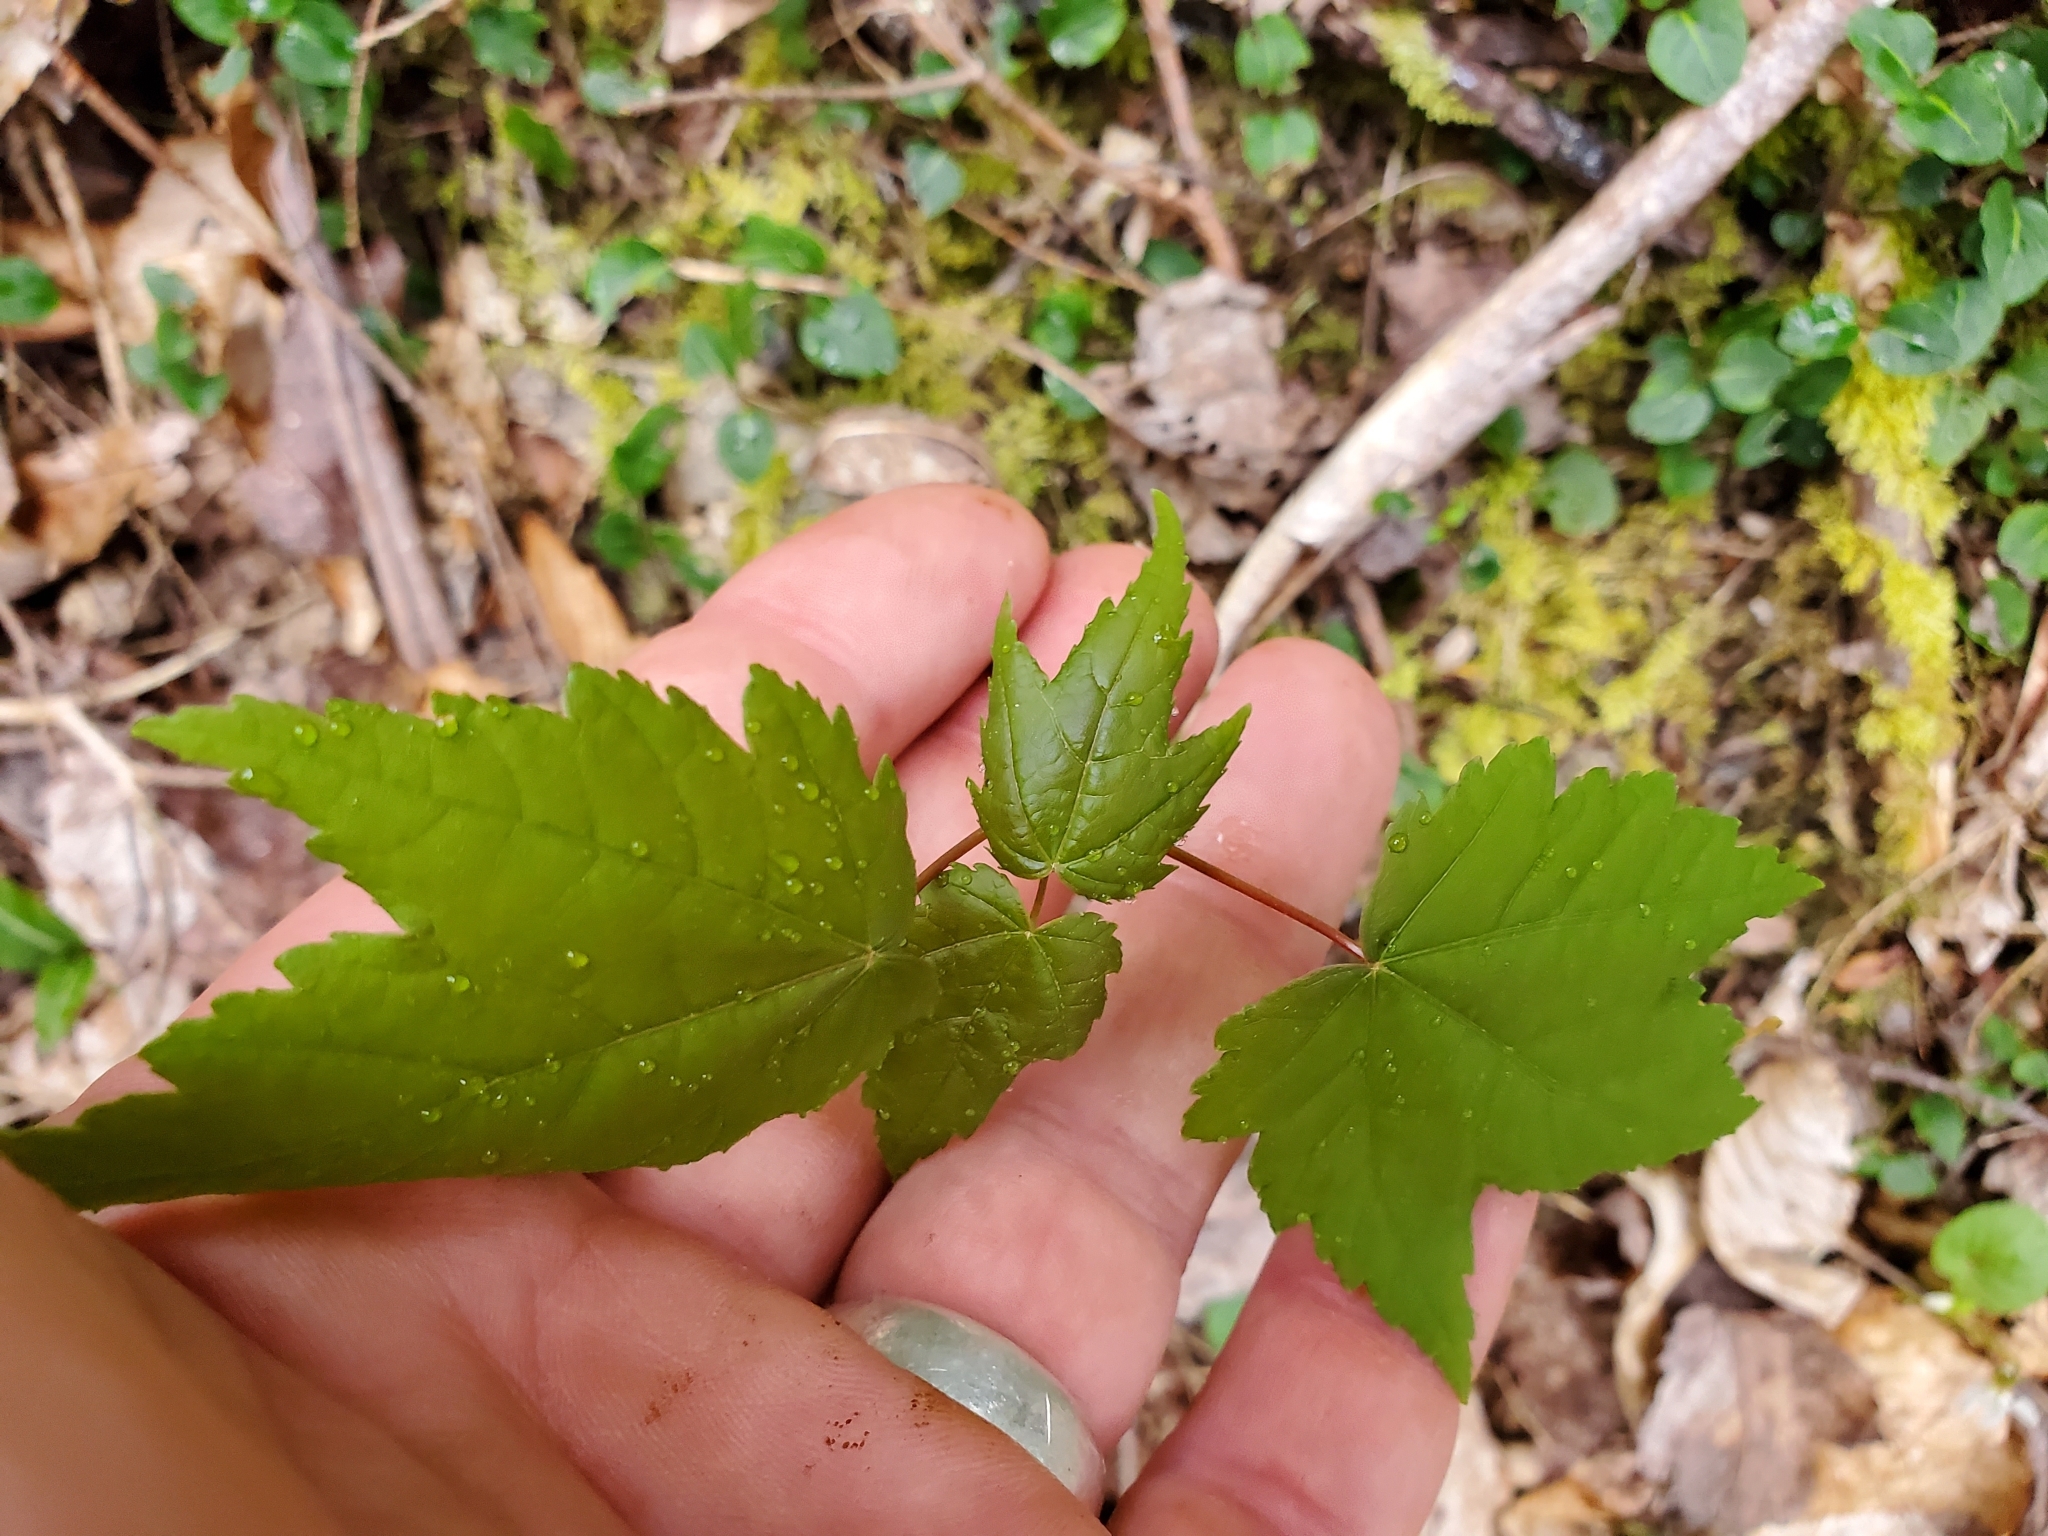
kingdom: Plantae
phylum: Tracheophyta
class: Magnoliopsida
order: Sapindales
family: Sapindaceae
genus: Acer
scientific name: Acer rubrum
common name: Red maple
